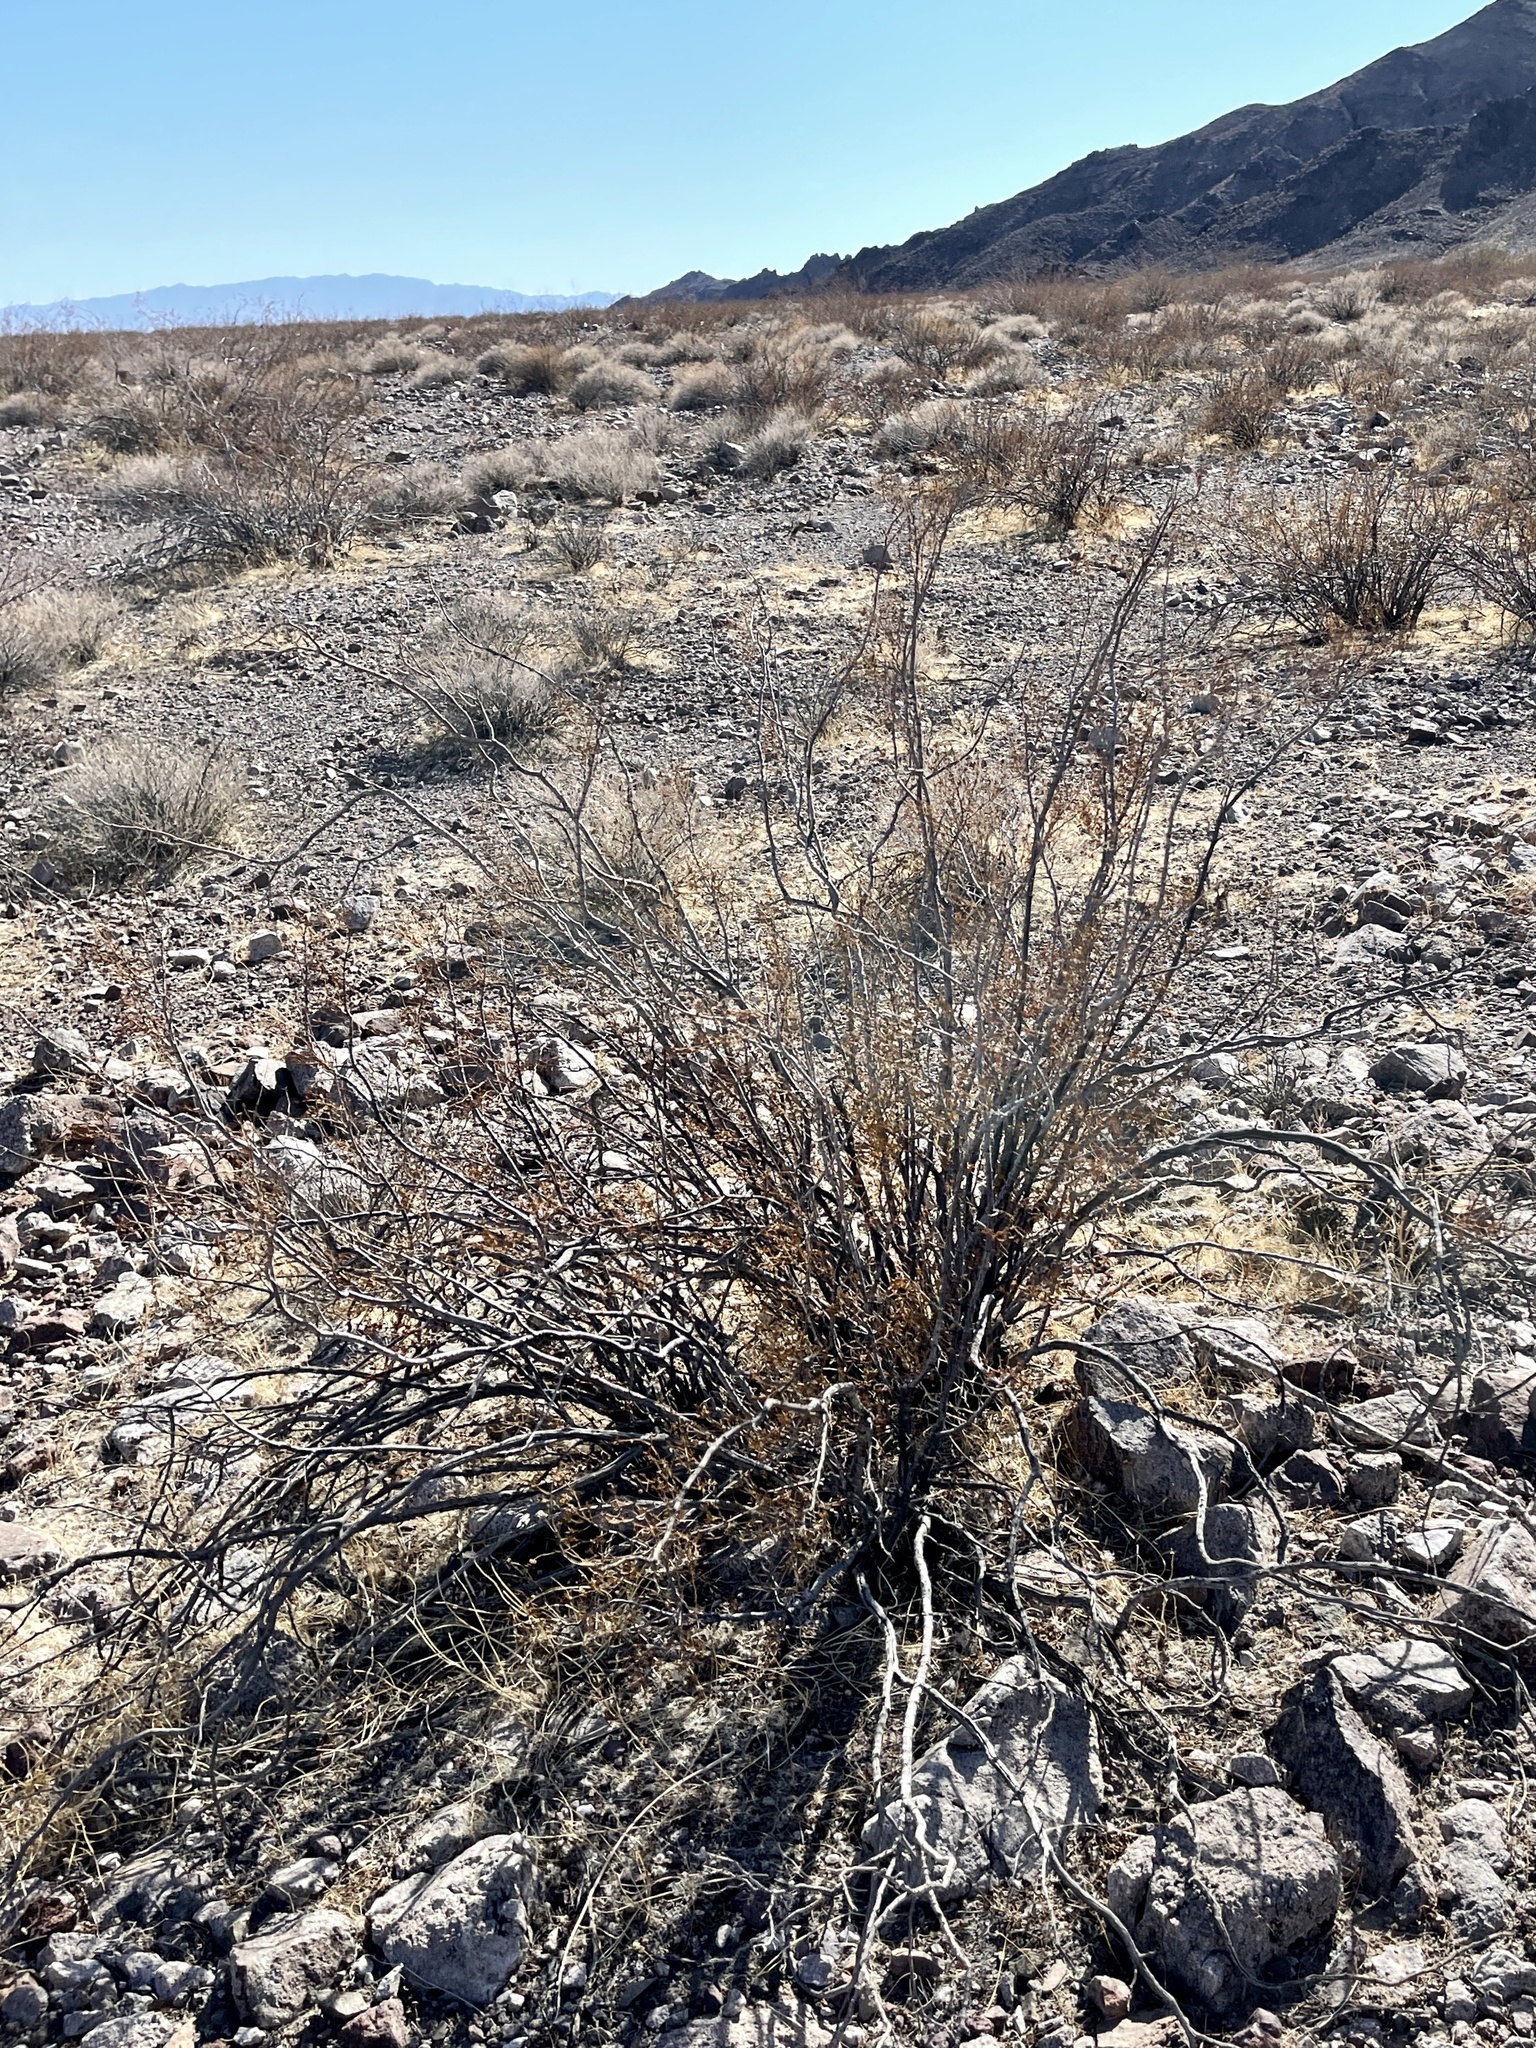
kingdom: Plantae
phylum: Tracheophyta
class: Magnoliopsida
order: Zygophyllales
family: Zygophyllaceae
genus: Larrea
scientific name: Larrea tridentata
